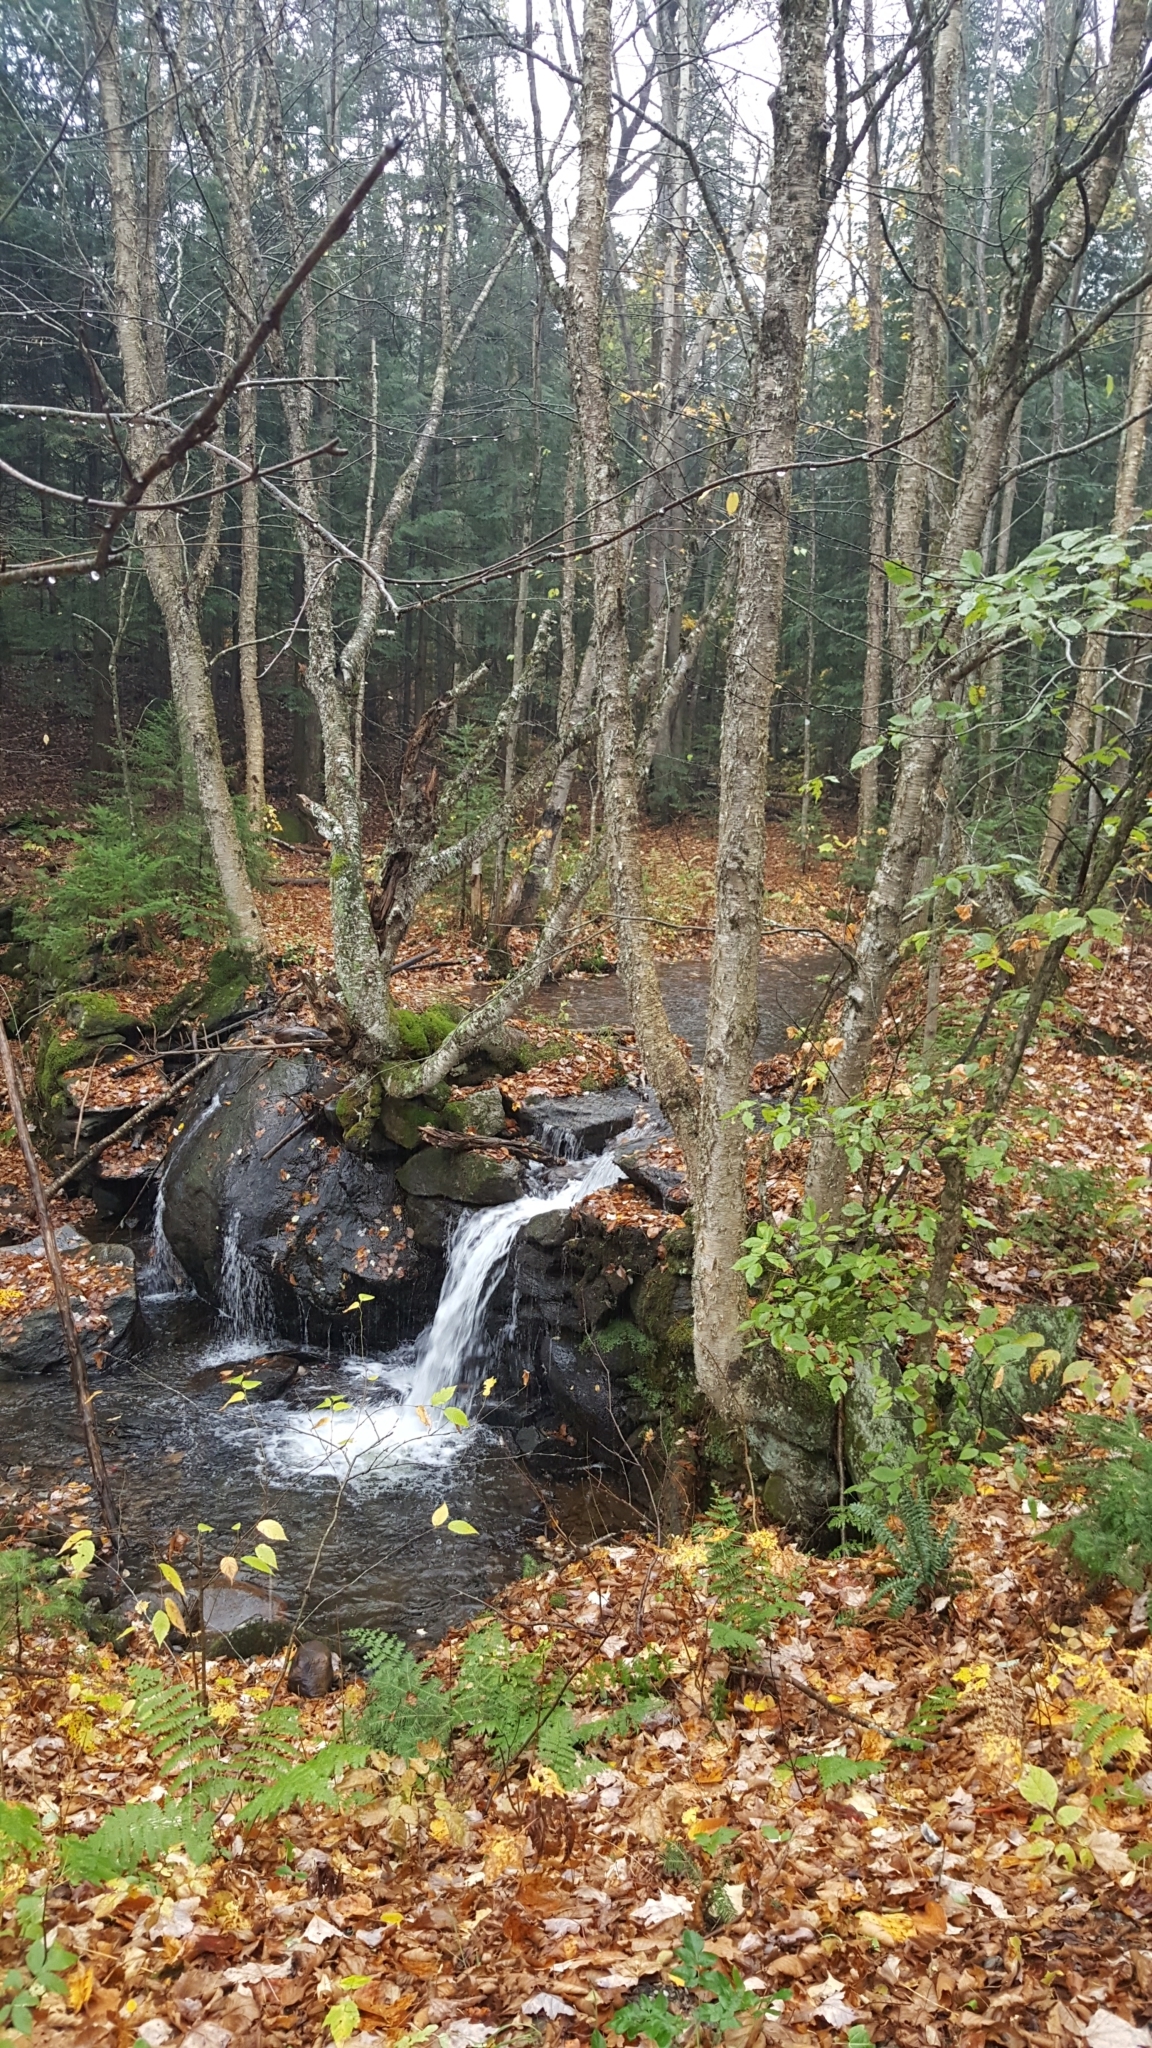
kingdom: Plantae
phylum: Tracheophyta
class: Magnoliopsida
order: Fagales
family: Betulaceae
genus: Betula
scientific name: Betula alleghaniensis
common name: Yellow birch
